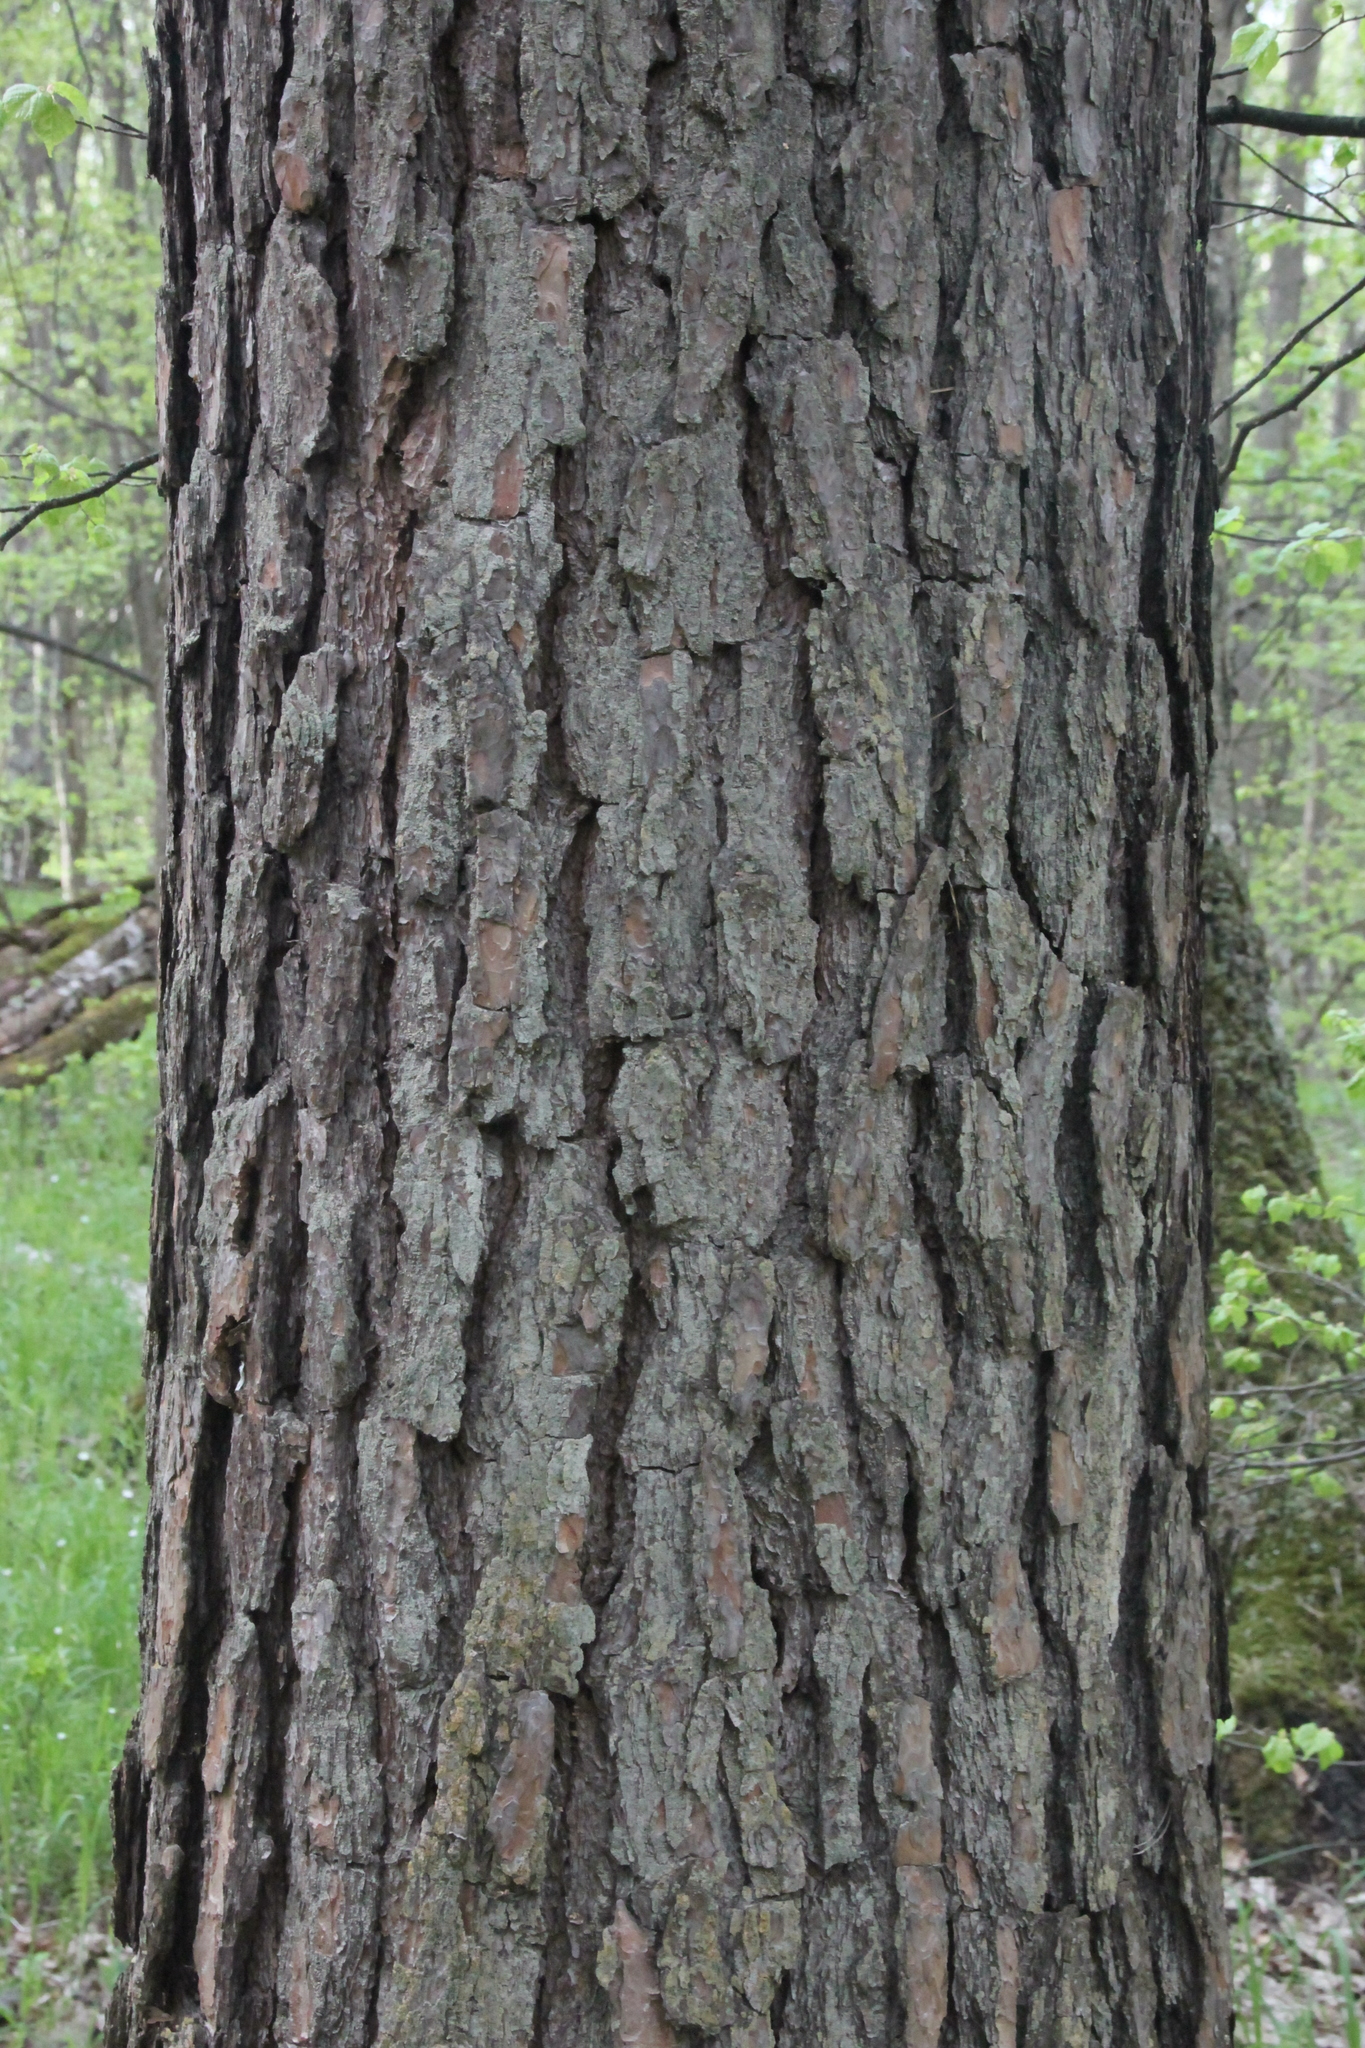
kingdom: Plantae
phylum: Tracheophyta
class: Pinopsida
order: Pinales
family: Pinaceae
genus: Pinus
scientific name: Pinus sylvestris
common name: Scots pine
